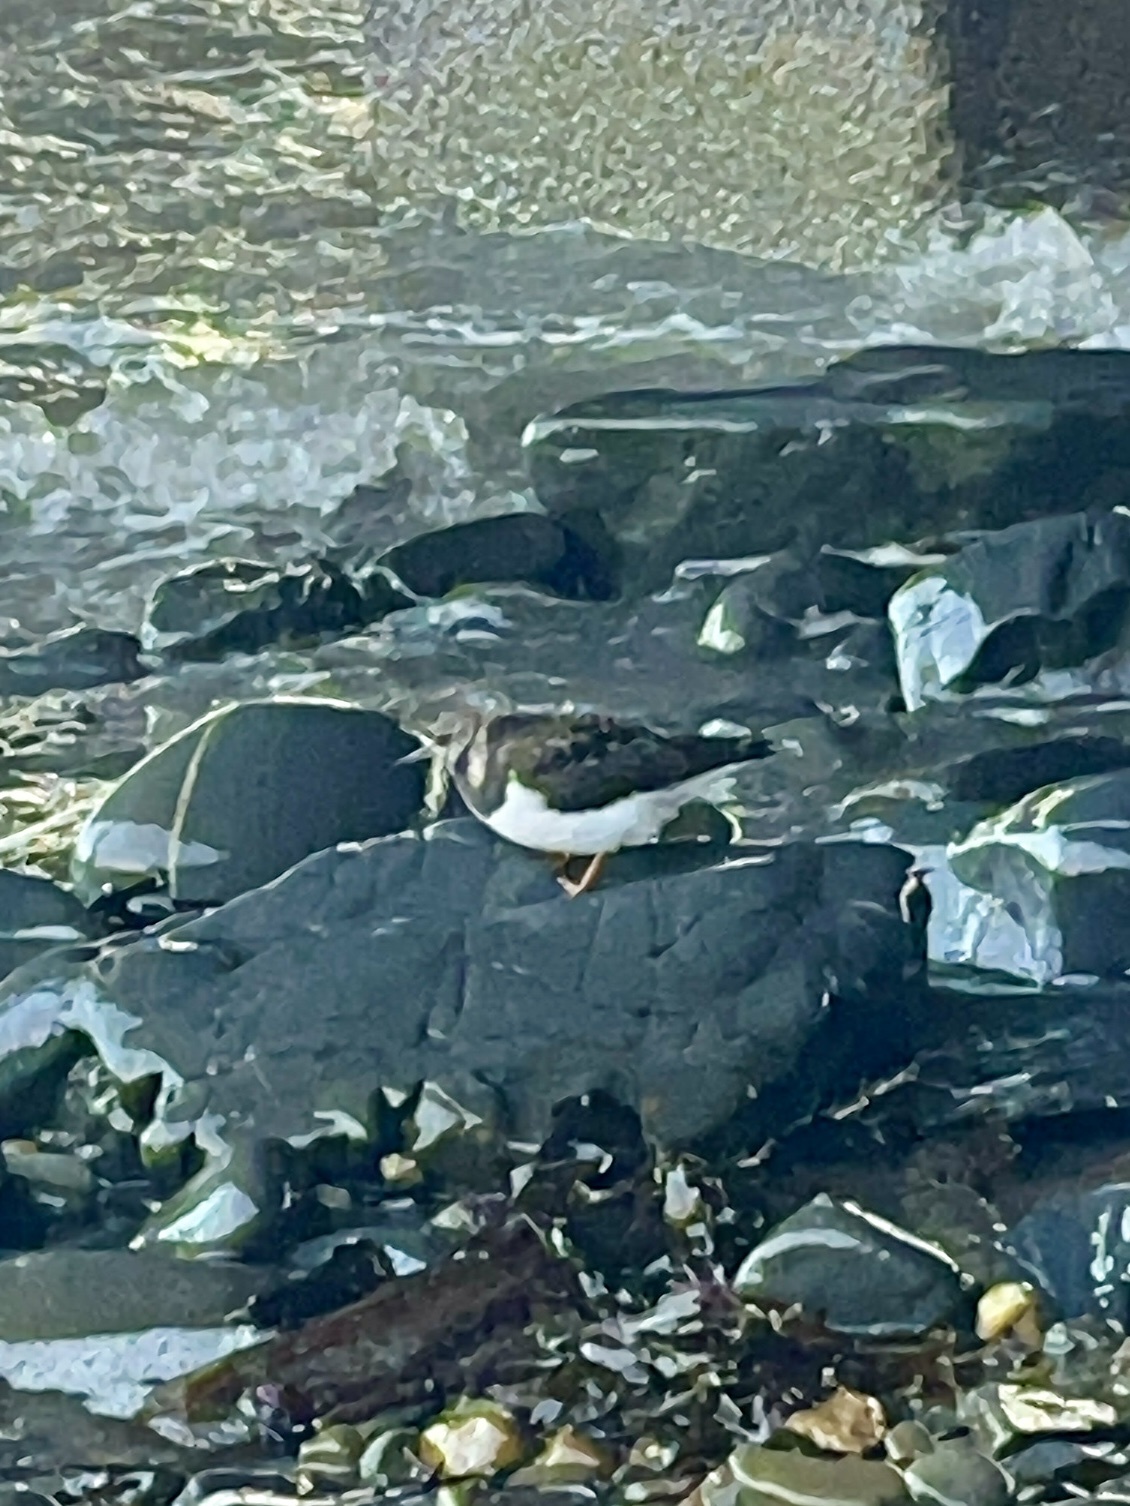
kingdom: Animalia
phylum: Chordata
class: Aves
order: Charadriiformes
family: Scolopacidae
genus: Arenaria
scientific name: Arenaria interpres
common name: Ruddy turnstone
